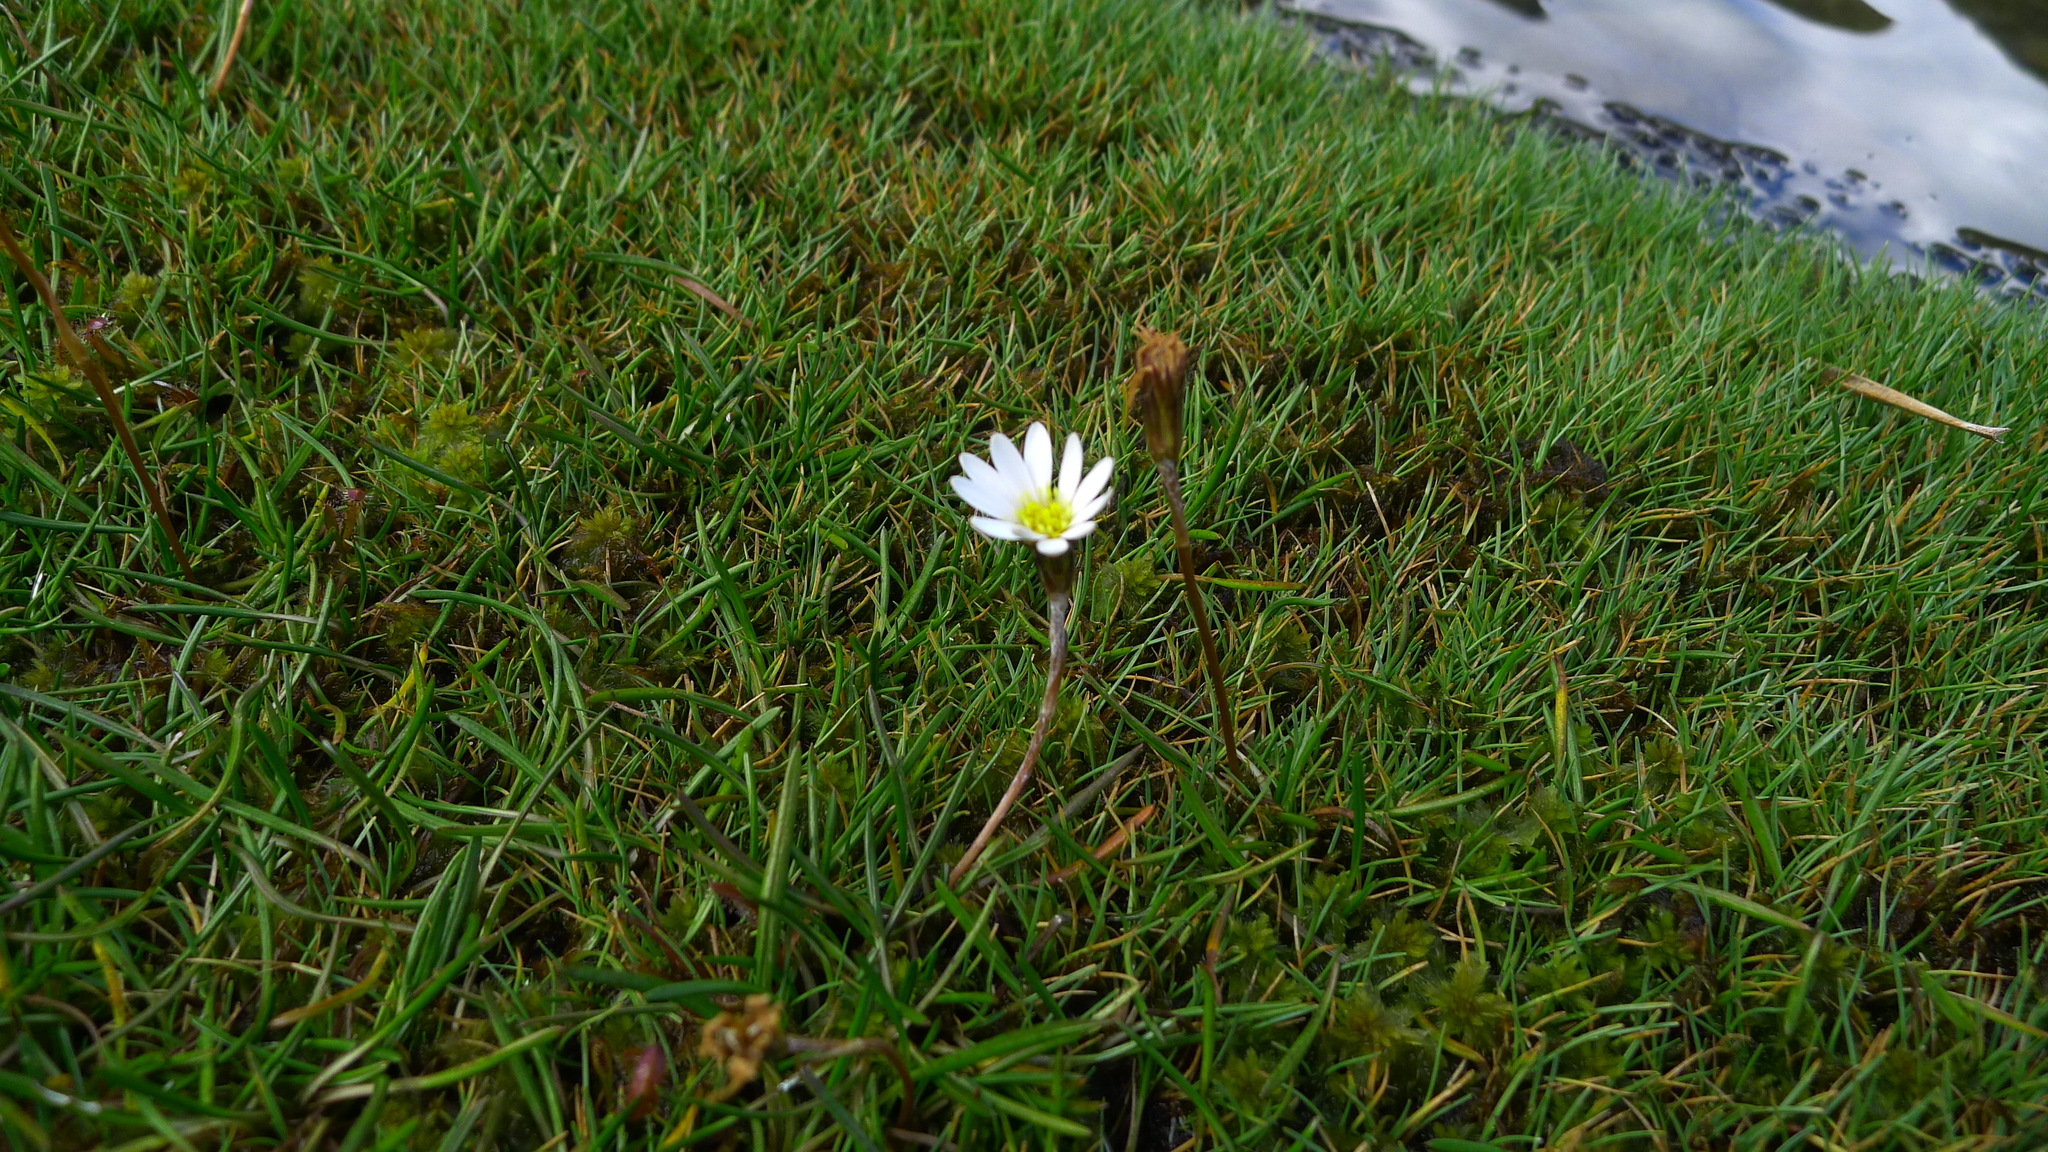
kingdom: Plantae
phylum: Tracheophyta
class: Magnoliopsida
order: Asterales
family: Asteraceae
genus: Celmisia
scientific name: Celmisia alpina
